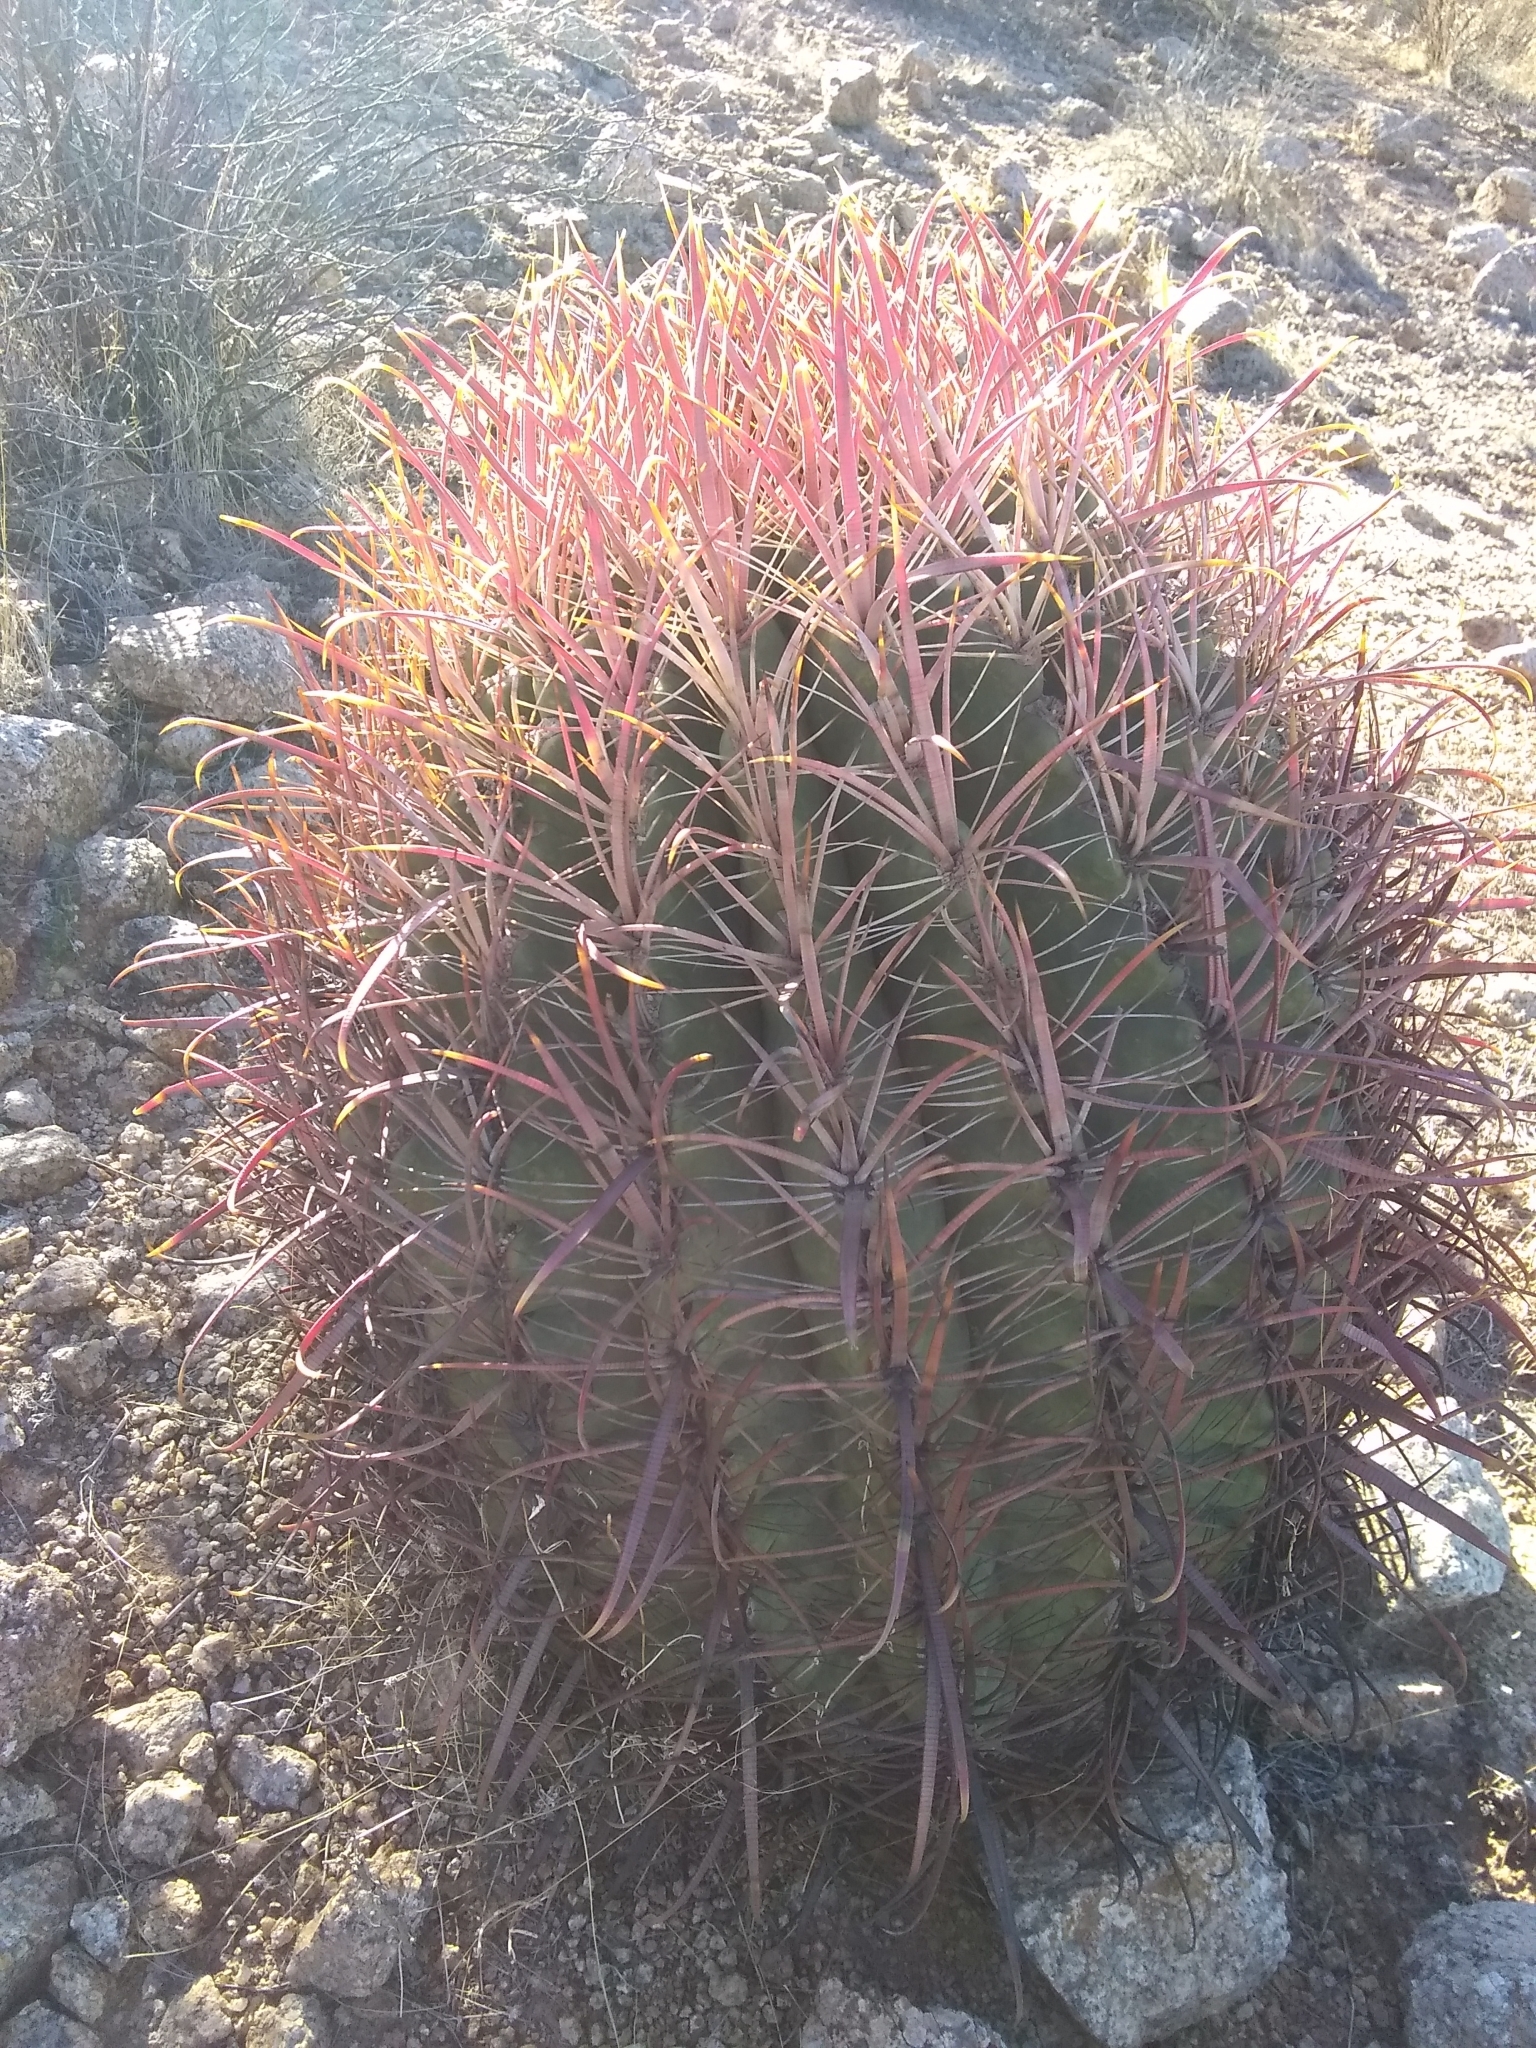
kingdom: Plantae
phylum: Tracheophyta
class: Magnoliopsida
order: Caryophyllales
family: Cactaceae
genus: Ferocactus
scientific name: Ferocactus cylindraceus
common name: California barrel cactus
